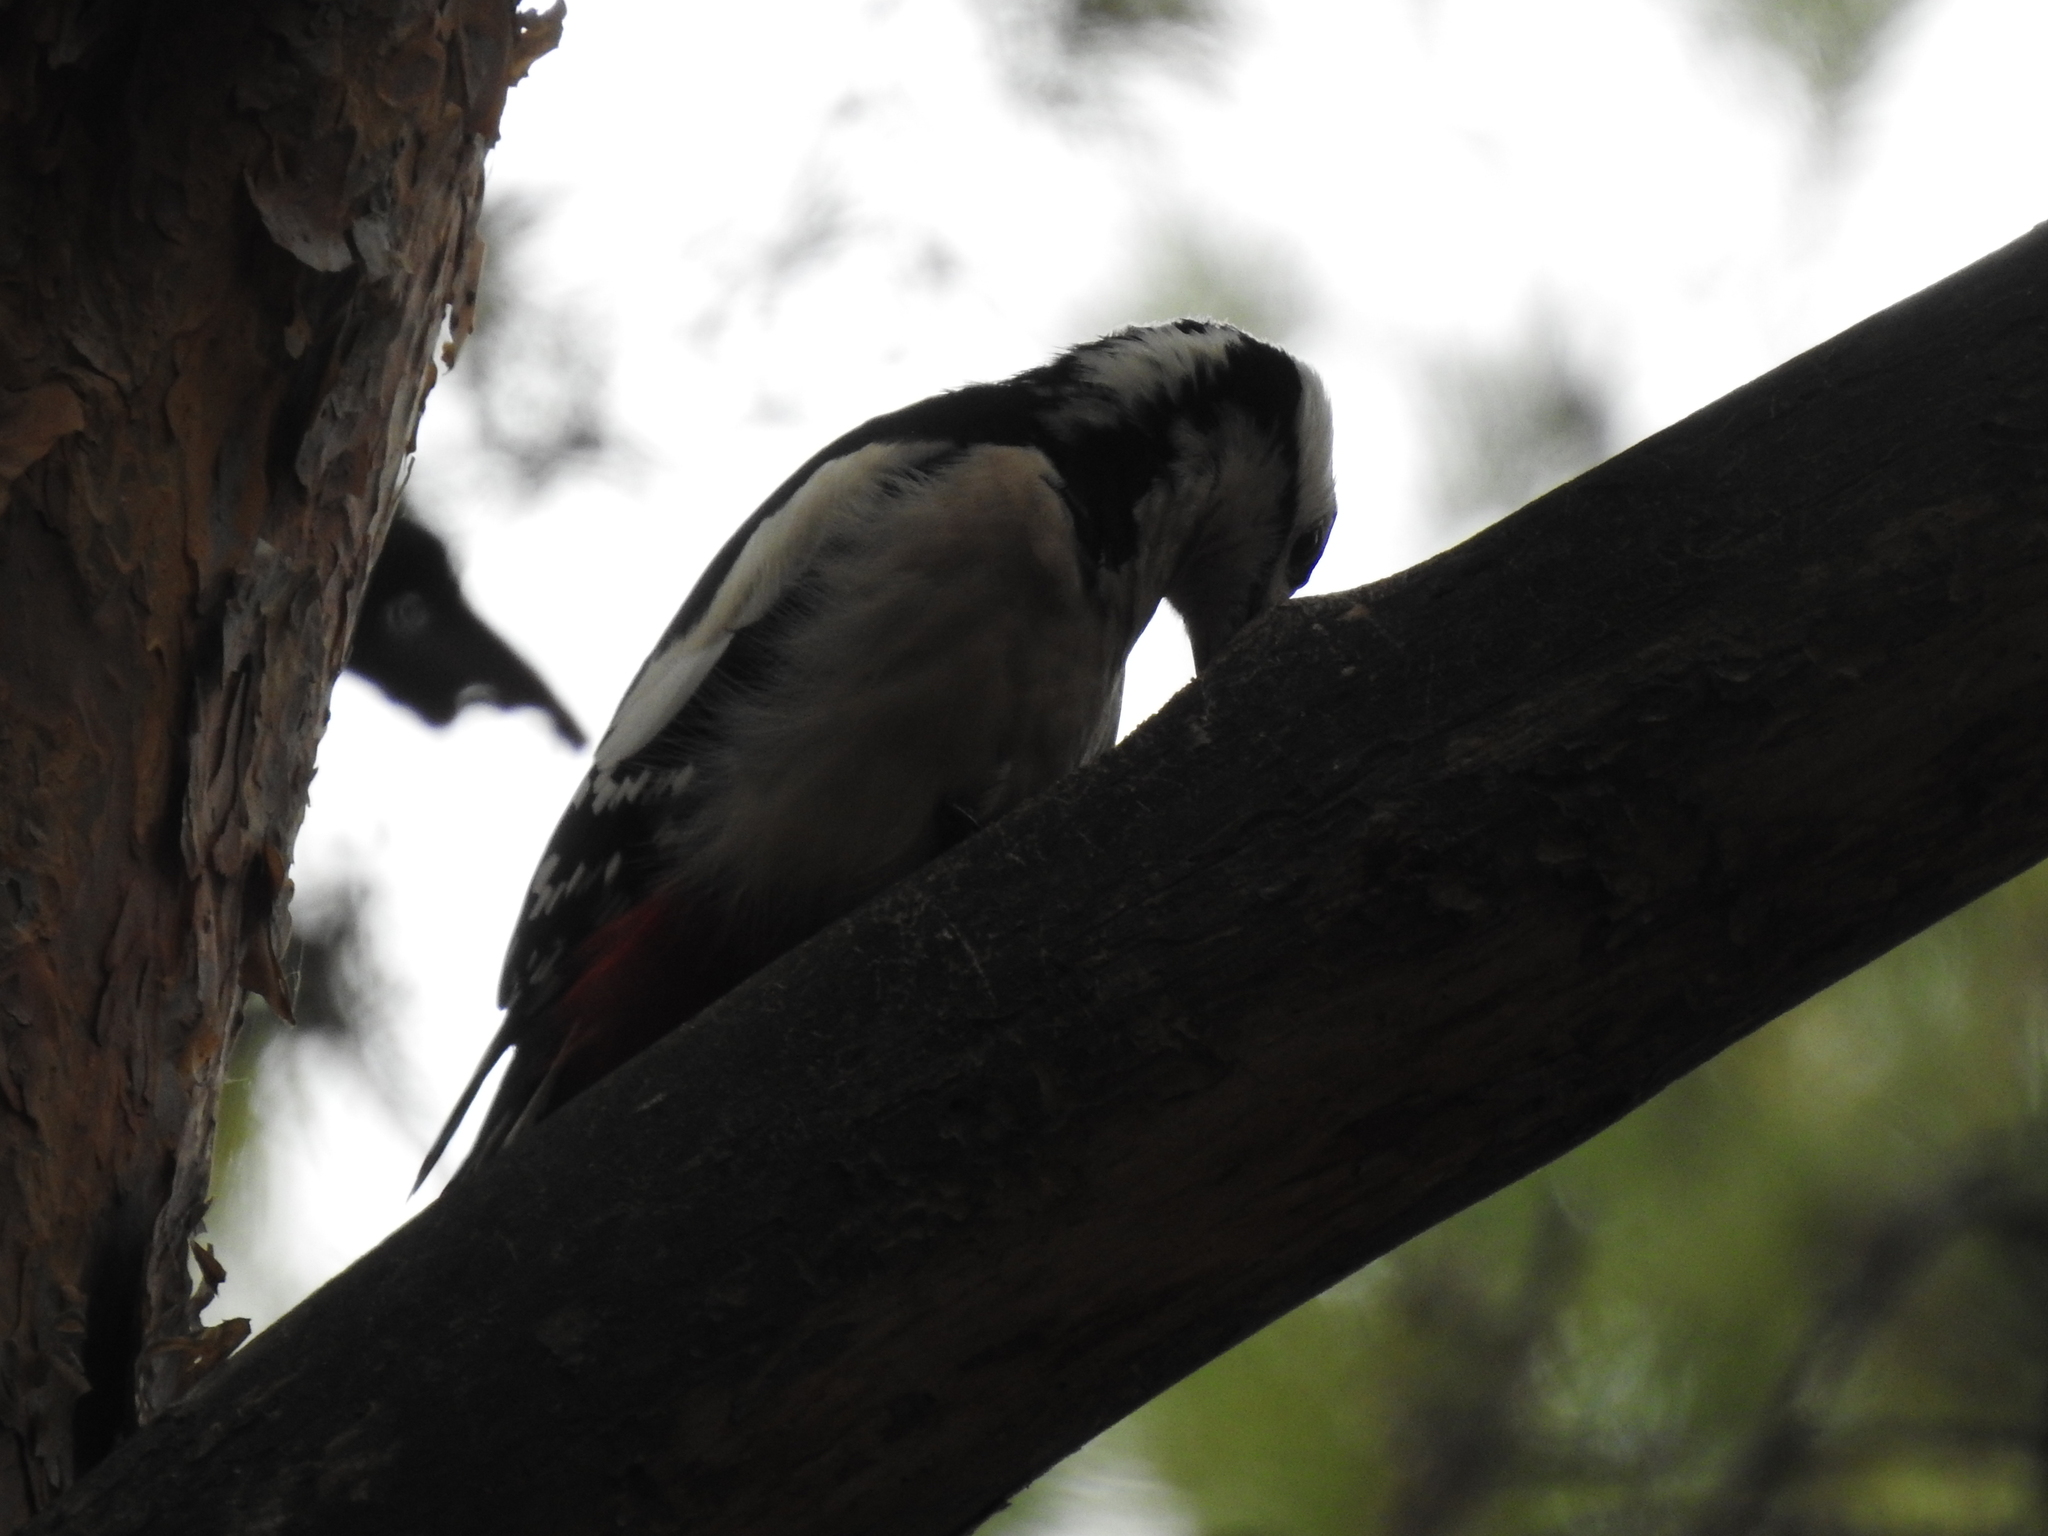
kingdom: Animalia
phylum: Chordata
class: Aves
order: Piciformes
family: Picidae
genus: Dendrocopos
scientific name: Dendrocopos major
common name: Great spotted woodpecker
